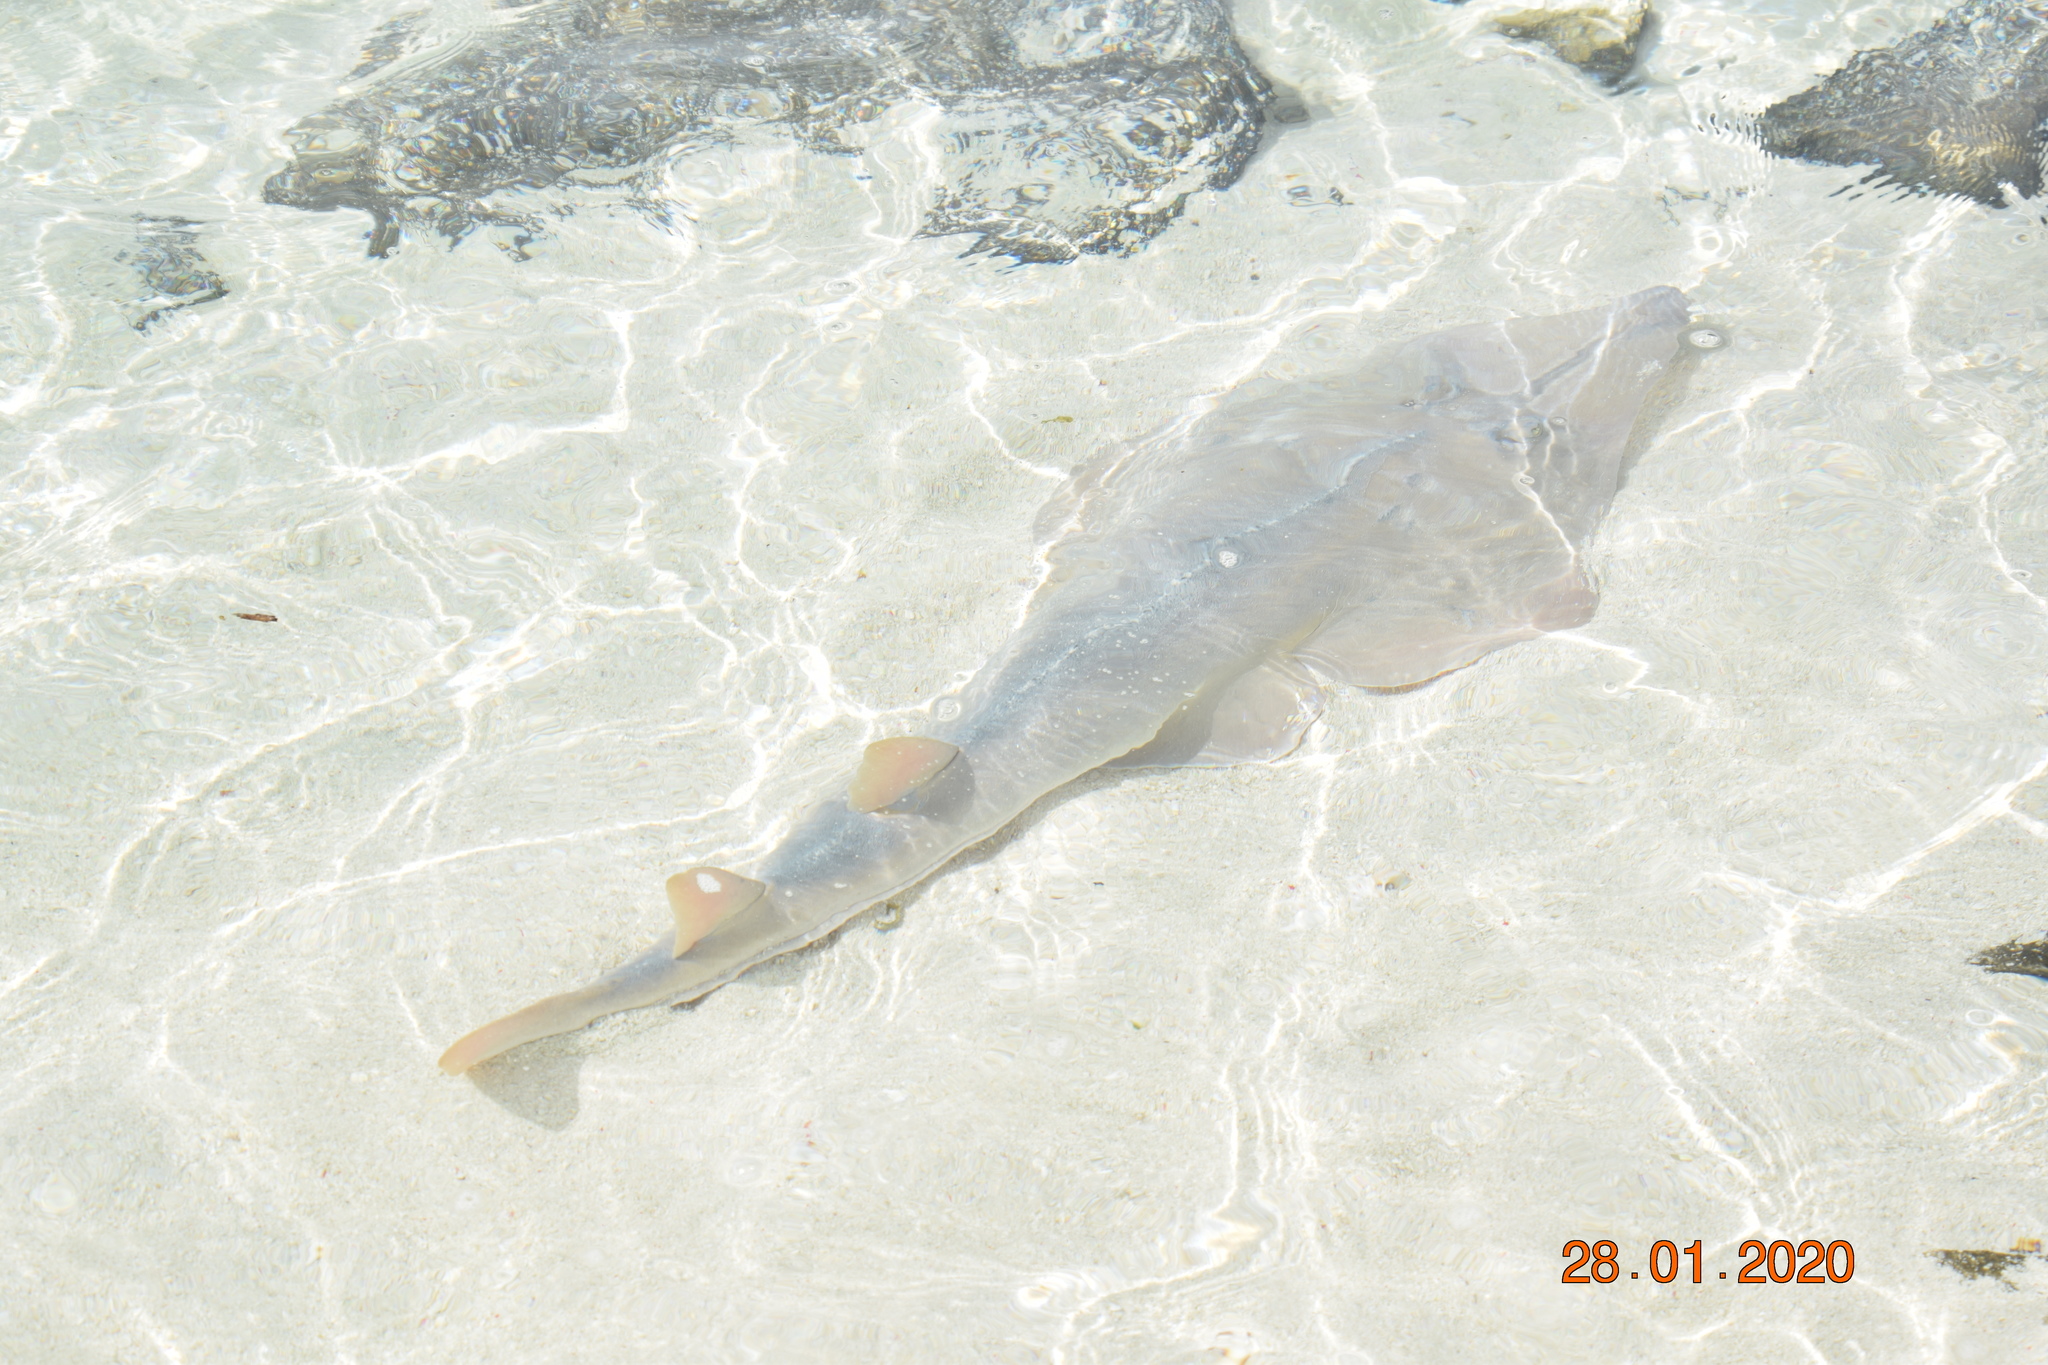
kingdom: Animalia
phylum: Chordata
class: Elasmobranchii
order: Rhinopristiformes
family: Glaucostegidae
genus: Glaucostegus
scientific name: Glaucostegus typus
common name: Giant shovelnose ray
